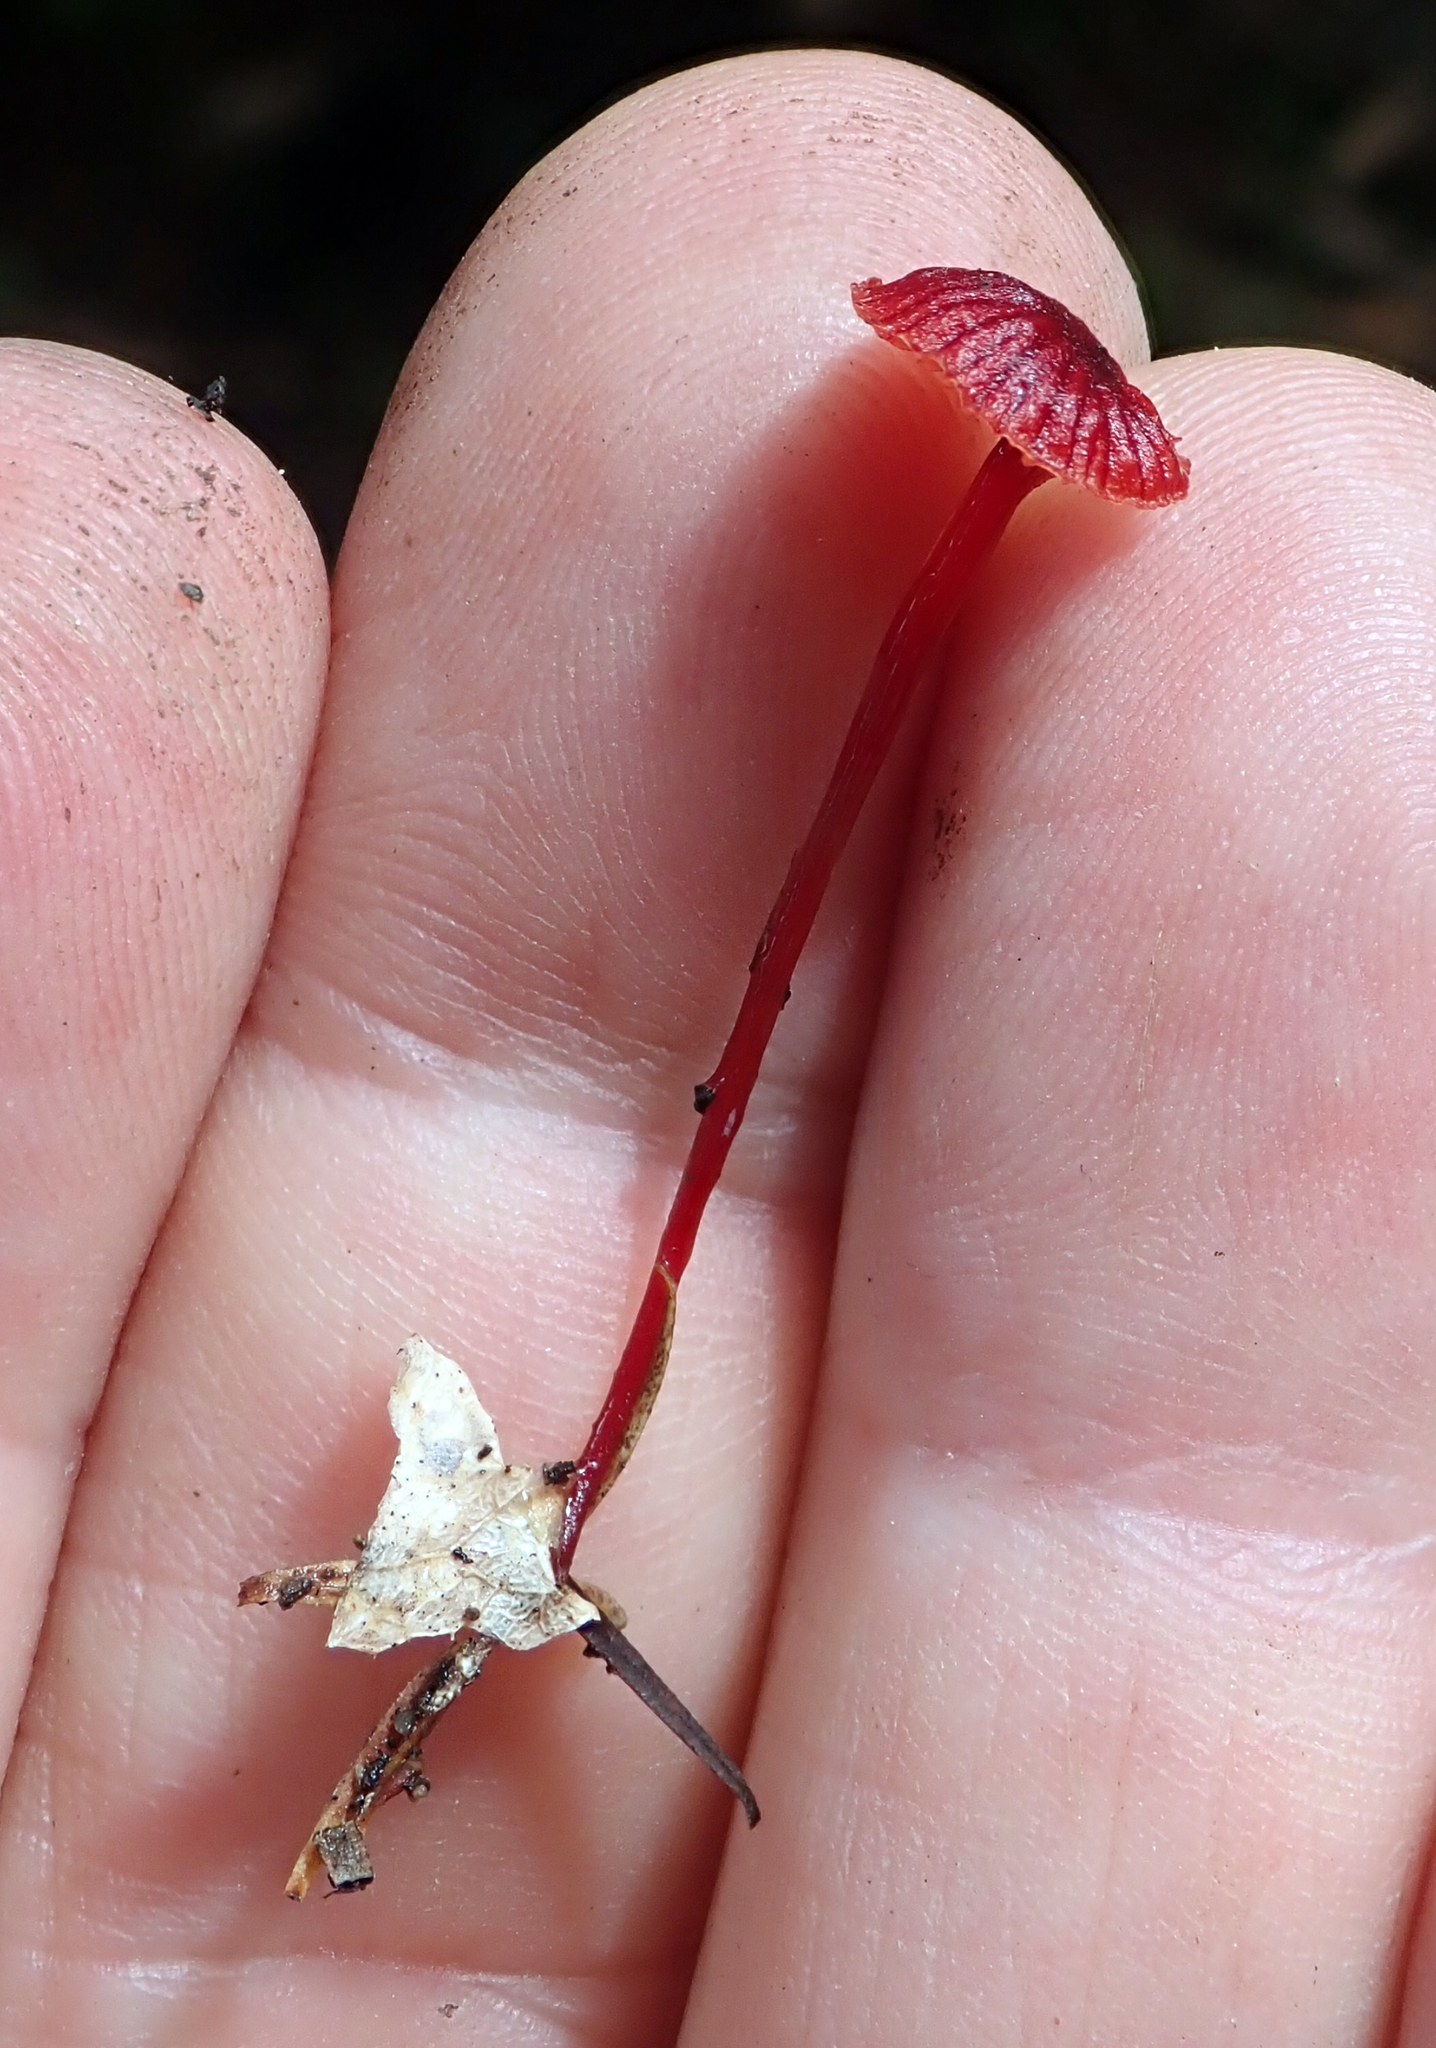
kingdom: Fungi
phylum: Basidiomycota
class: Agaricomycetes
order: Agaricales
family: Mycenaceae
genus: Cruentomycena
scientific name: Cruentomycena viscidocruenta
